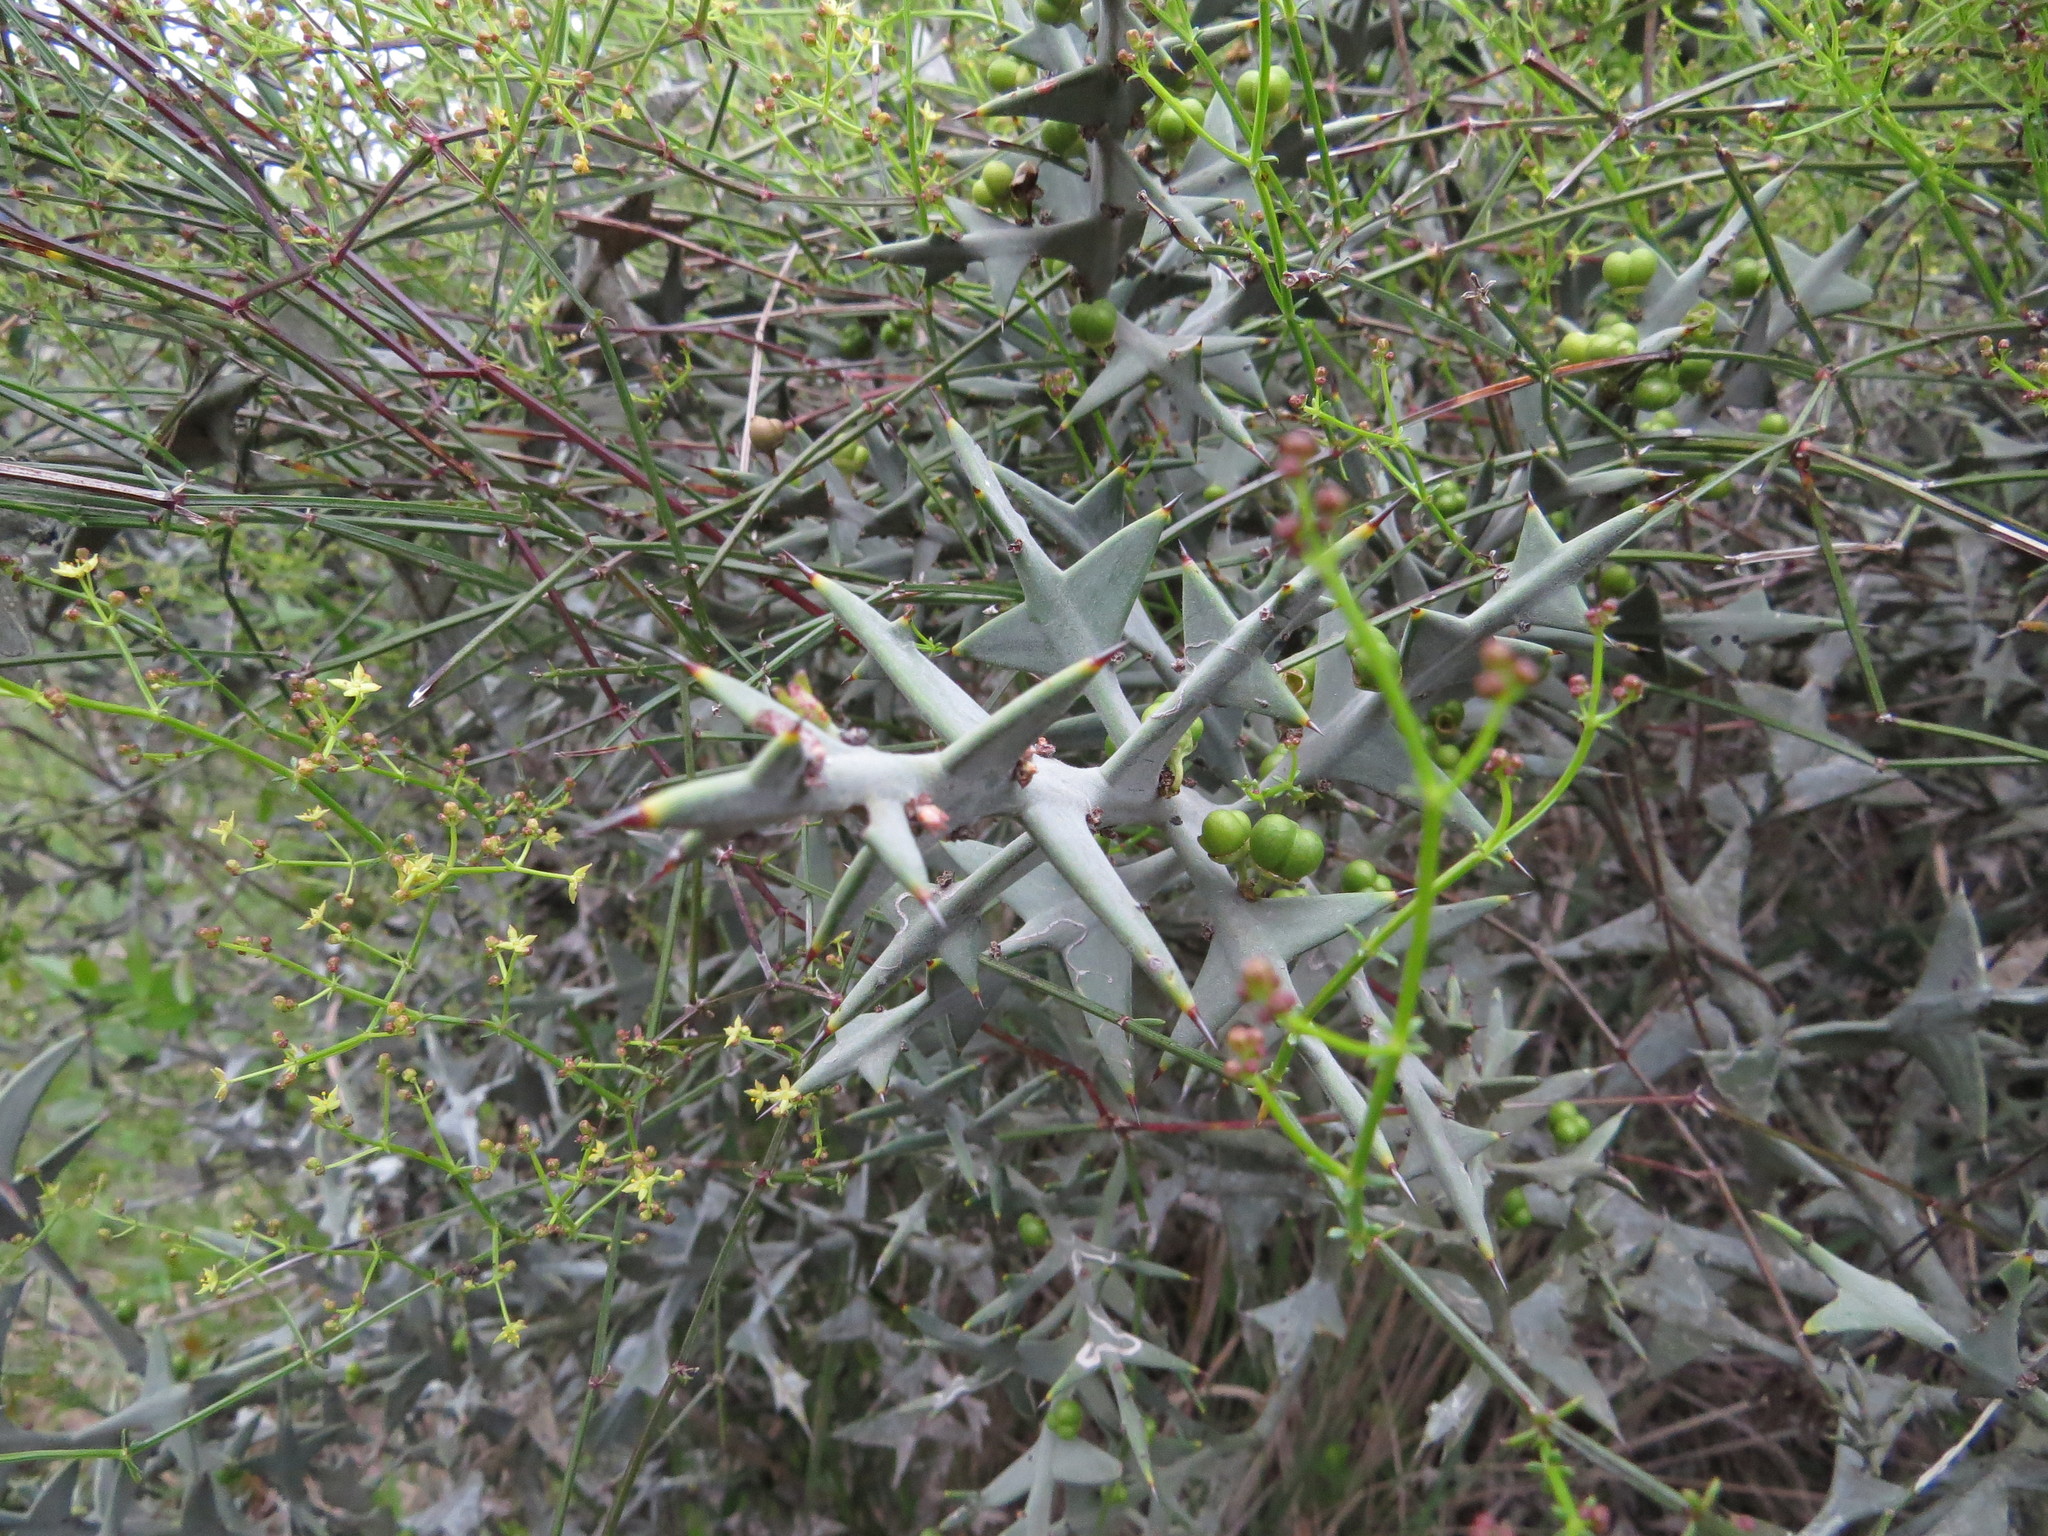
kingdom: Plantae
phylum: Tracheophyta
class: Magnoliopsida
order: Rosales
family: Rhamnaceae
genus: Colletia
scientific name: Colletia paradoxa
